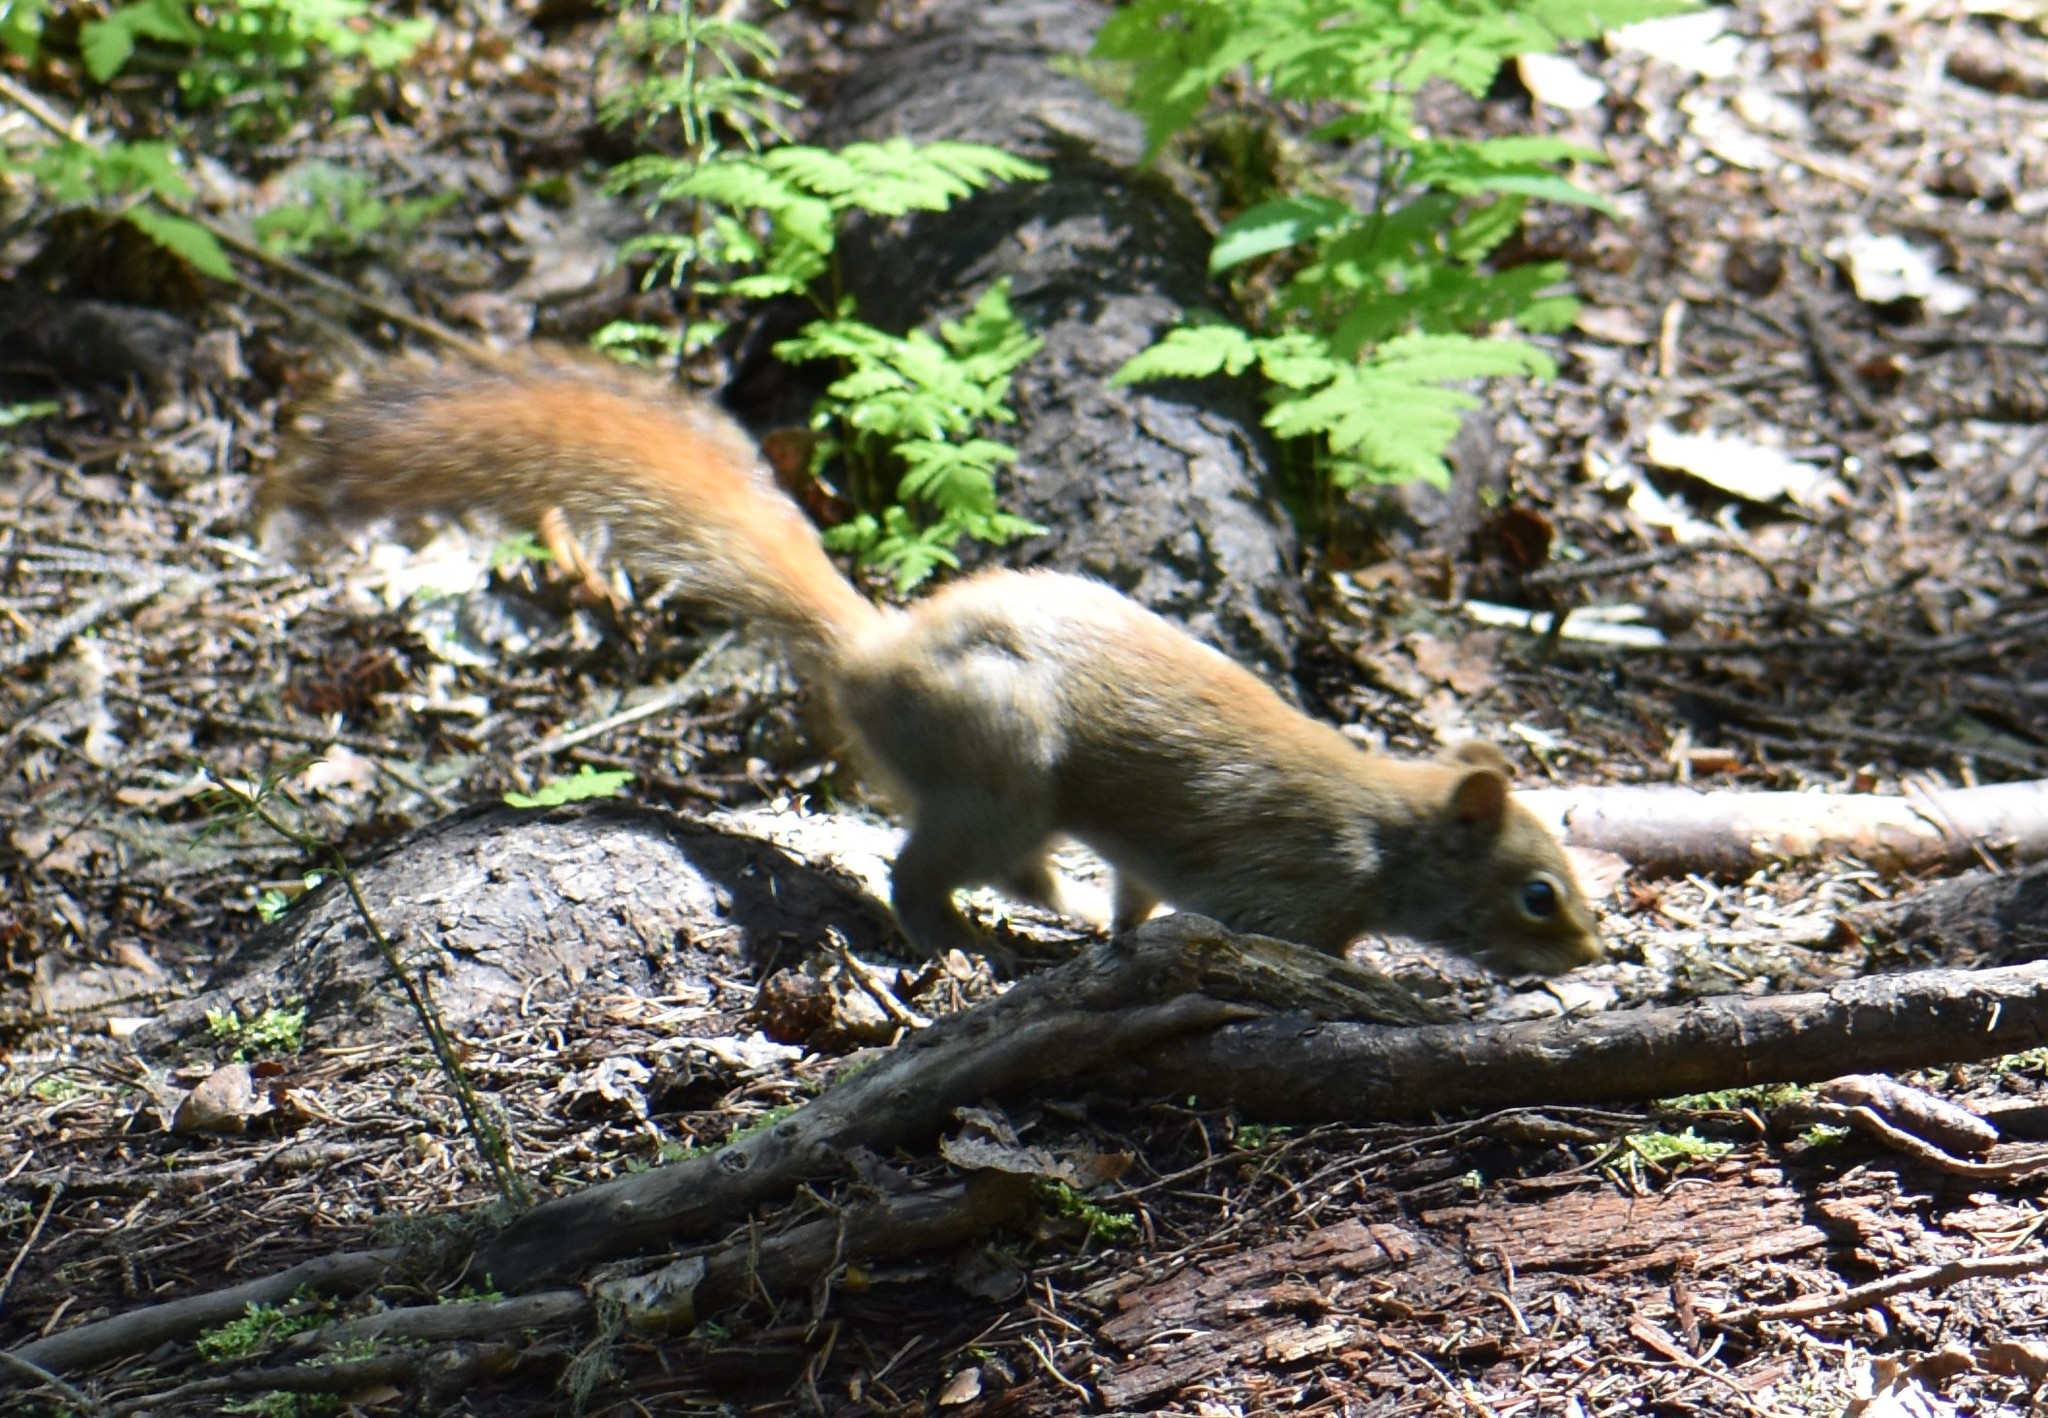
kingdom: Animalia
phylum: Chordata
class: Mammalia
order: Rodentia
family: Sciuridae
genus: Tamiasciurus
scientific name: Tamiasciurus hudsonicus
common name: Red squirrel
